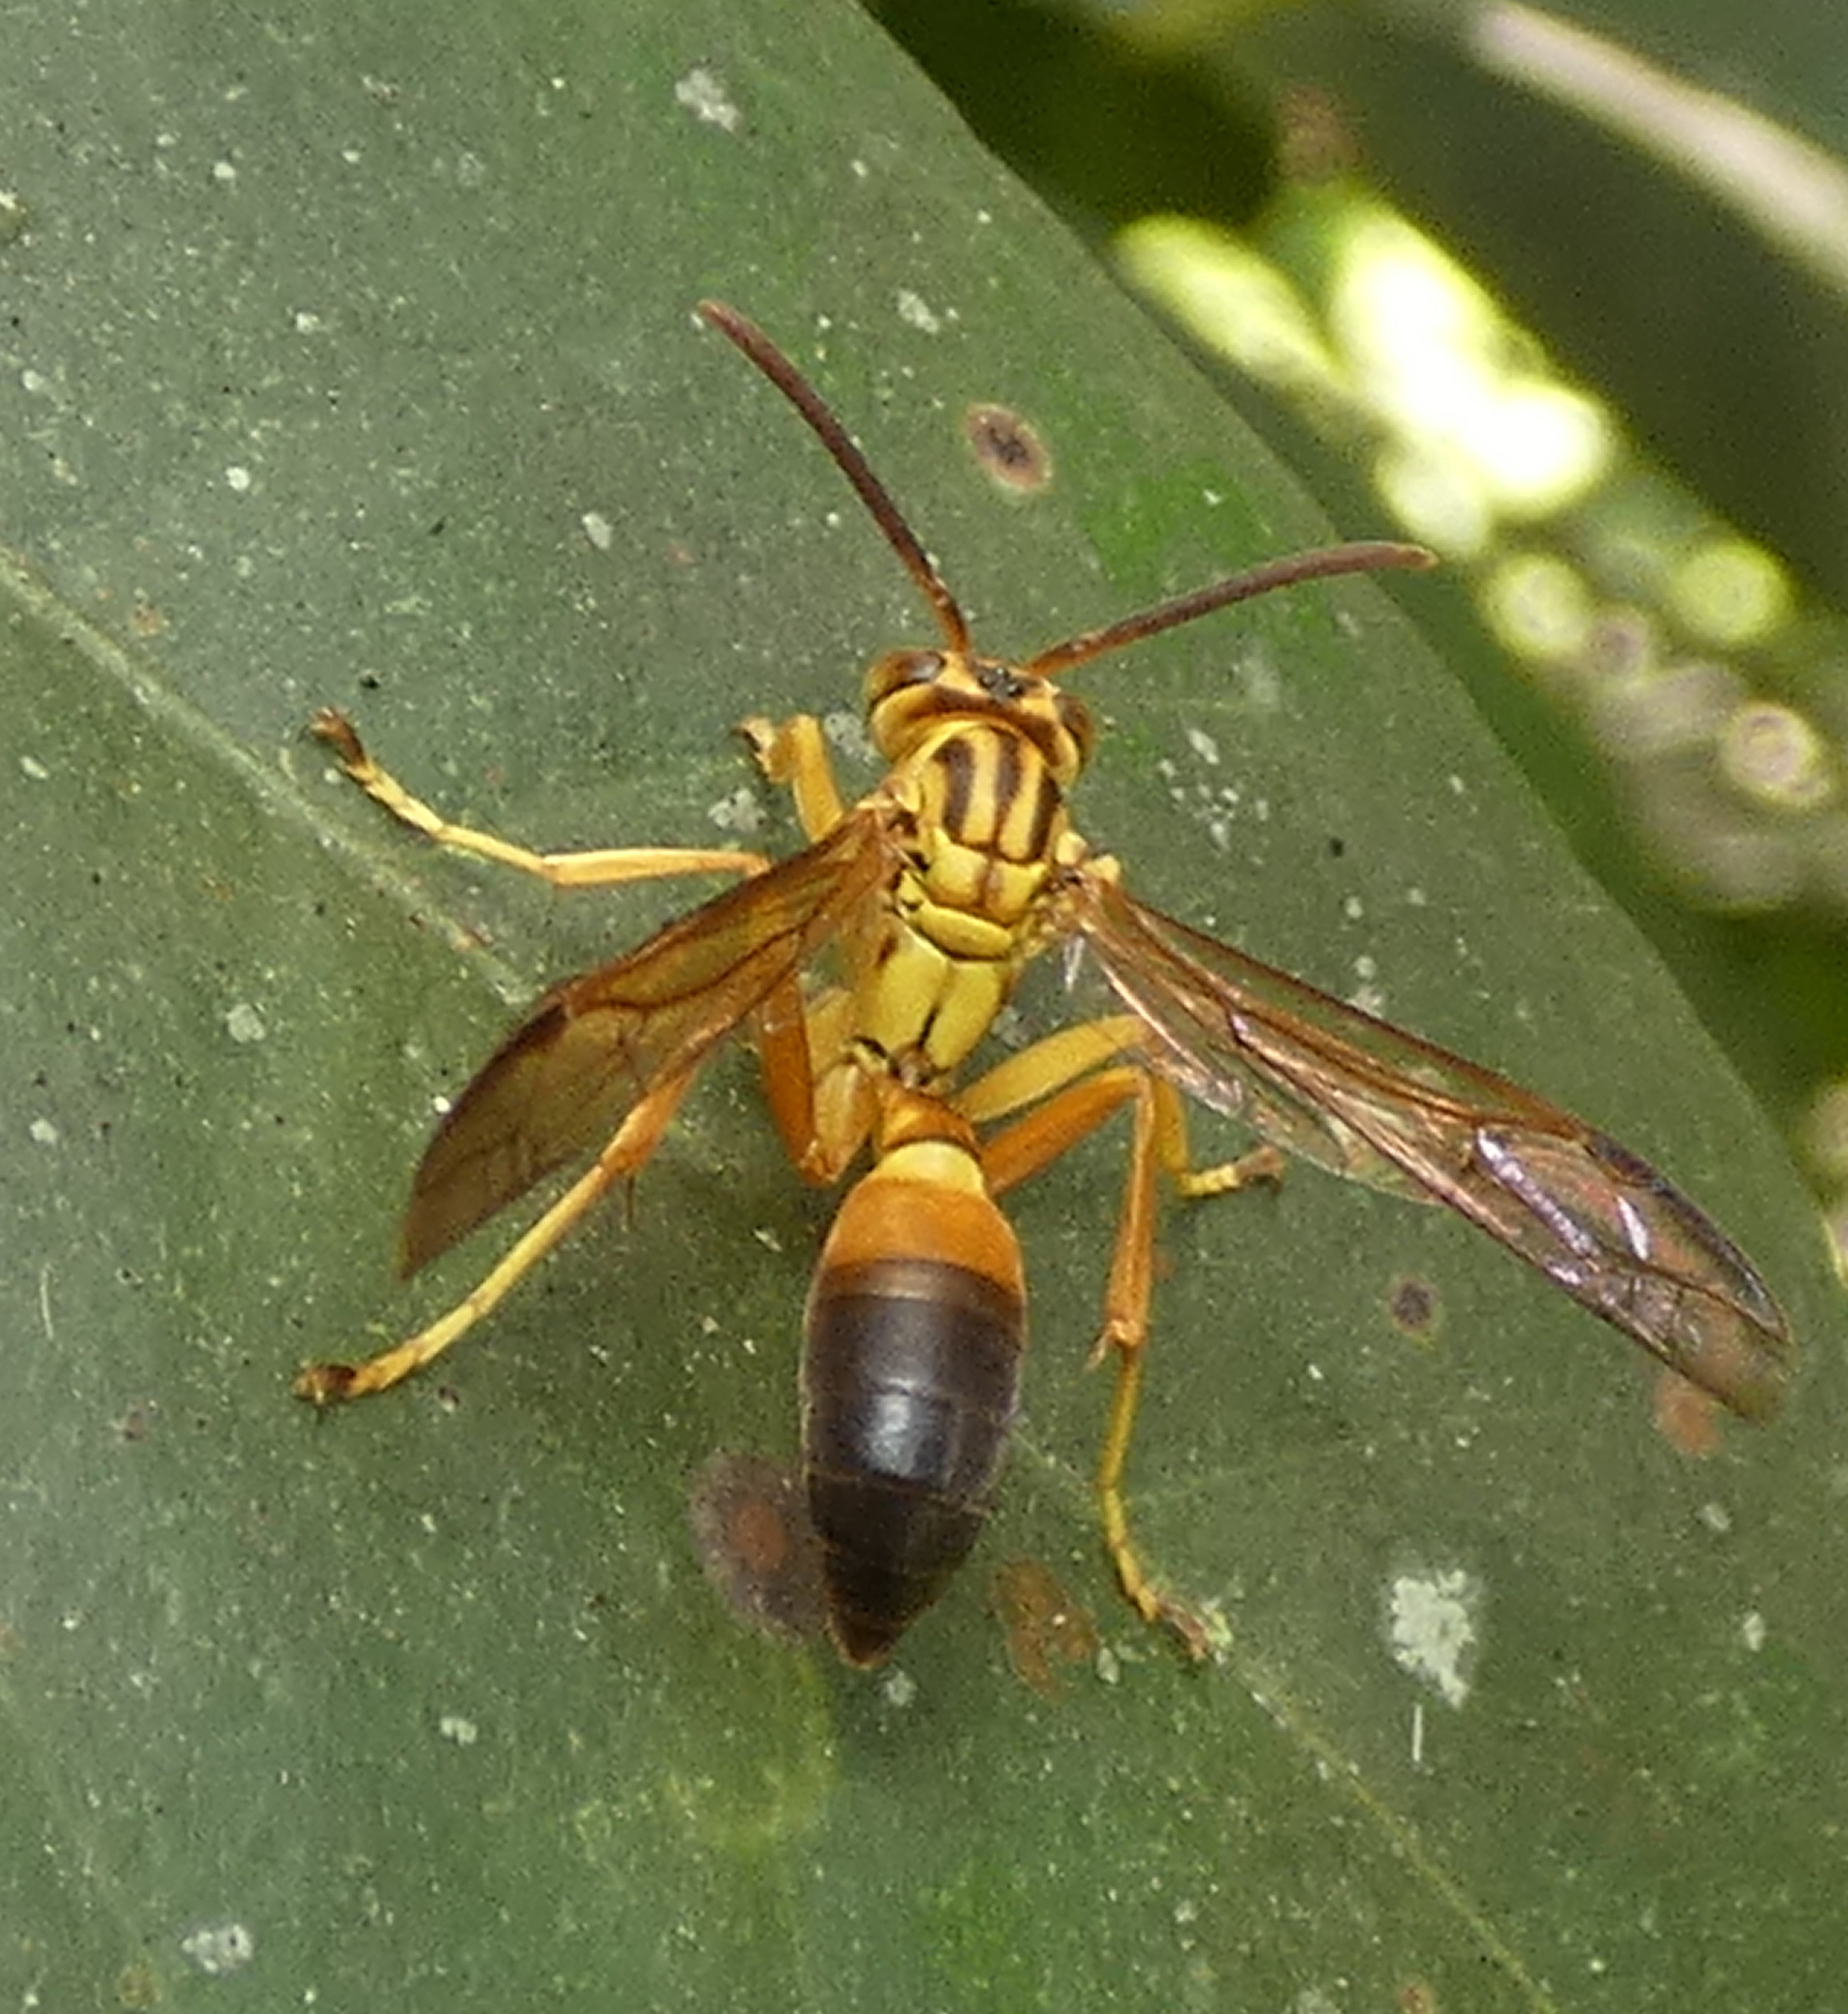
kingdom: Animalia
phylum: Arthropoda
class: Insecta
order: Hymenoptera
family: Vespidae
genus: Agelaia
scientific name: Agelaia pallipes
